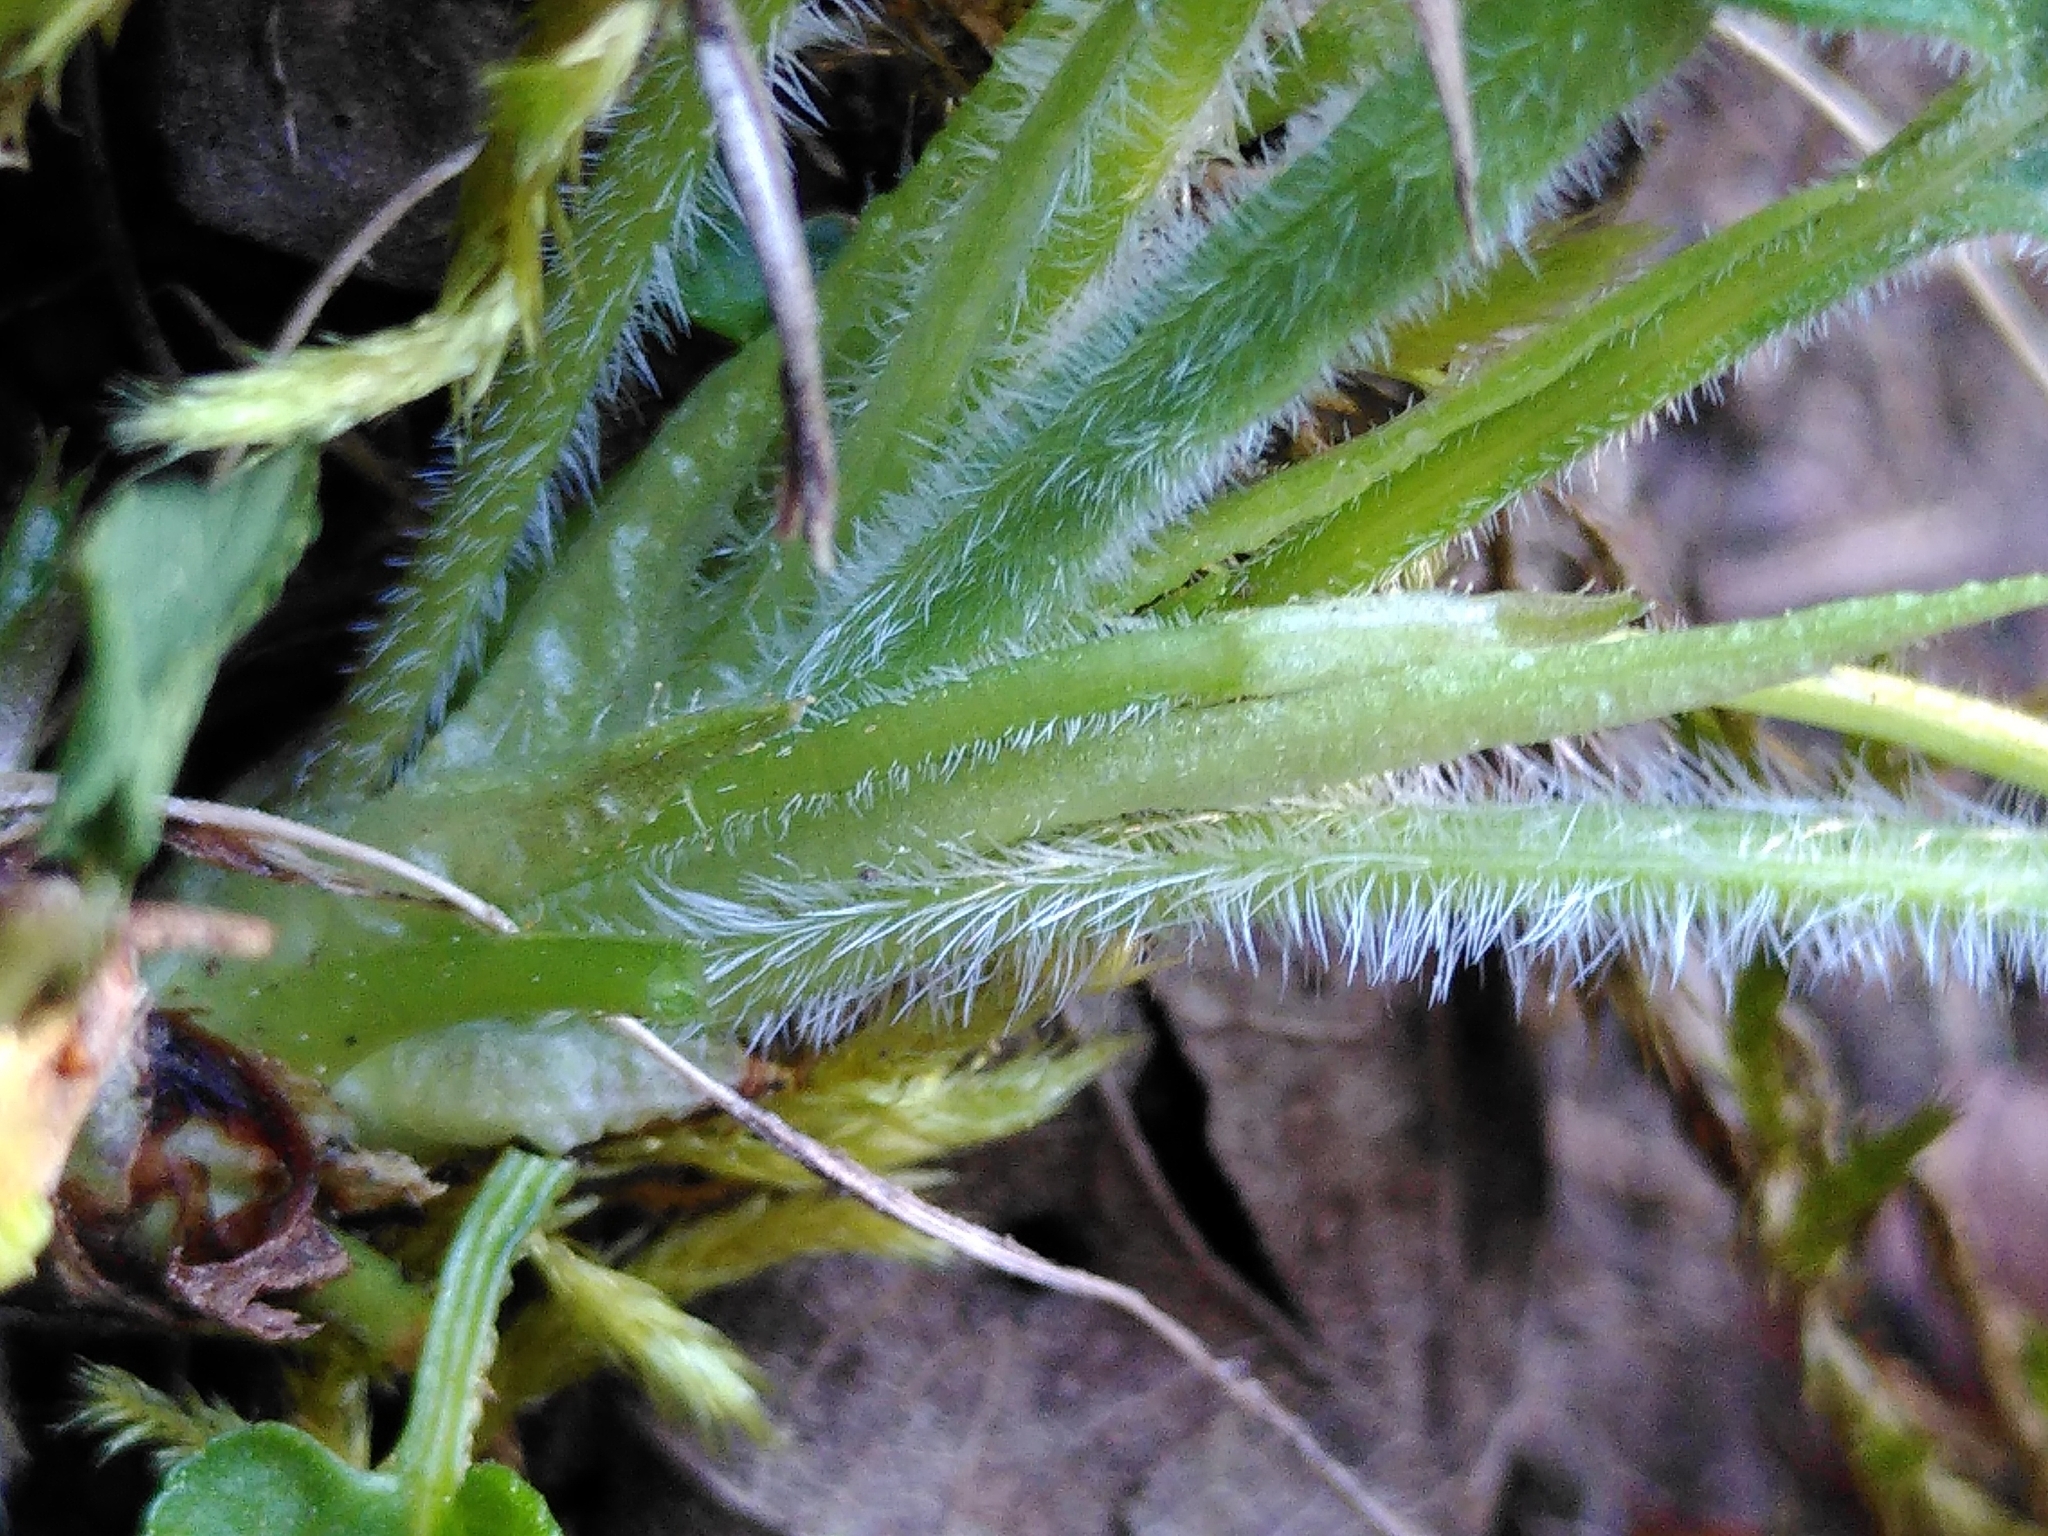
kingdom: Plantae
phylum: Tracheophyta
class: Magnoliopsida
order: Malpighiales
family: Violaceae
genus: Viola
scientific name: Viola hirta
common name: Hairy violet
